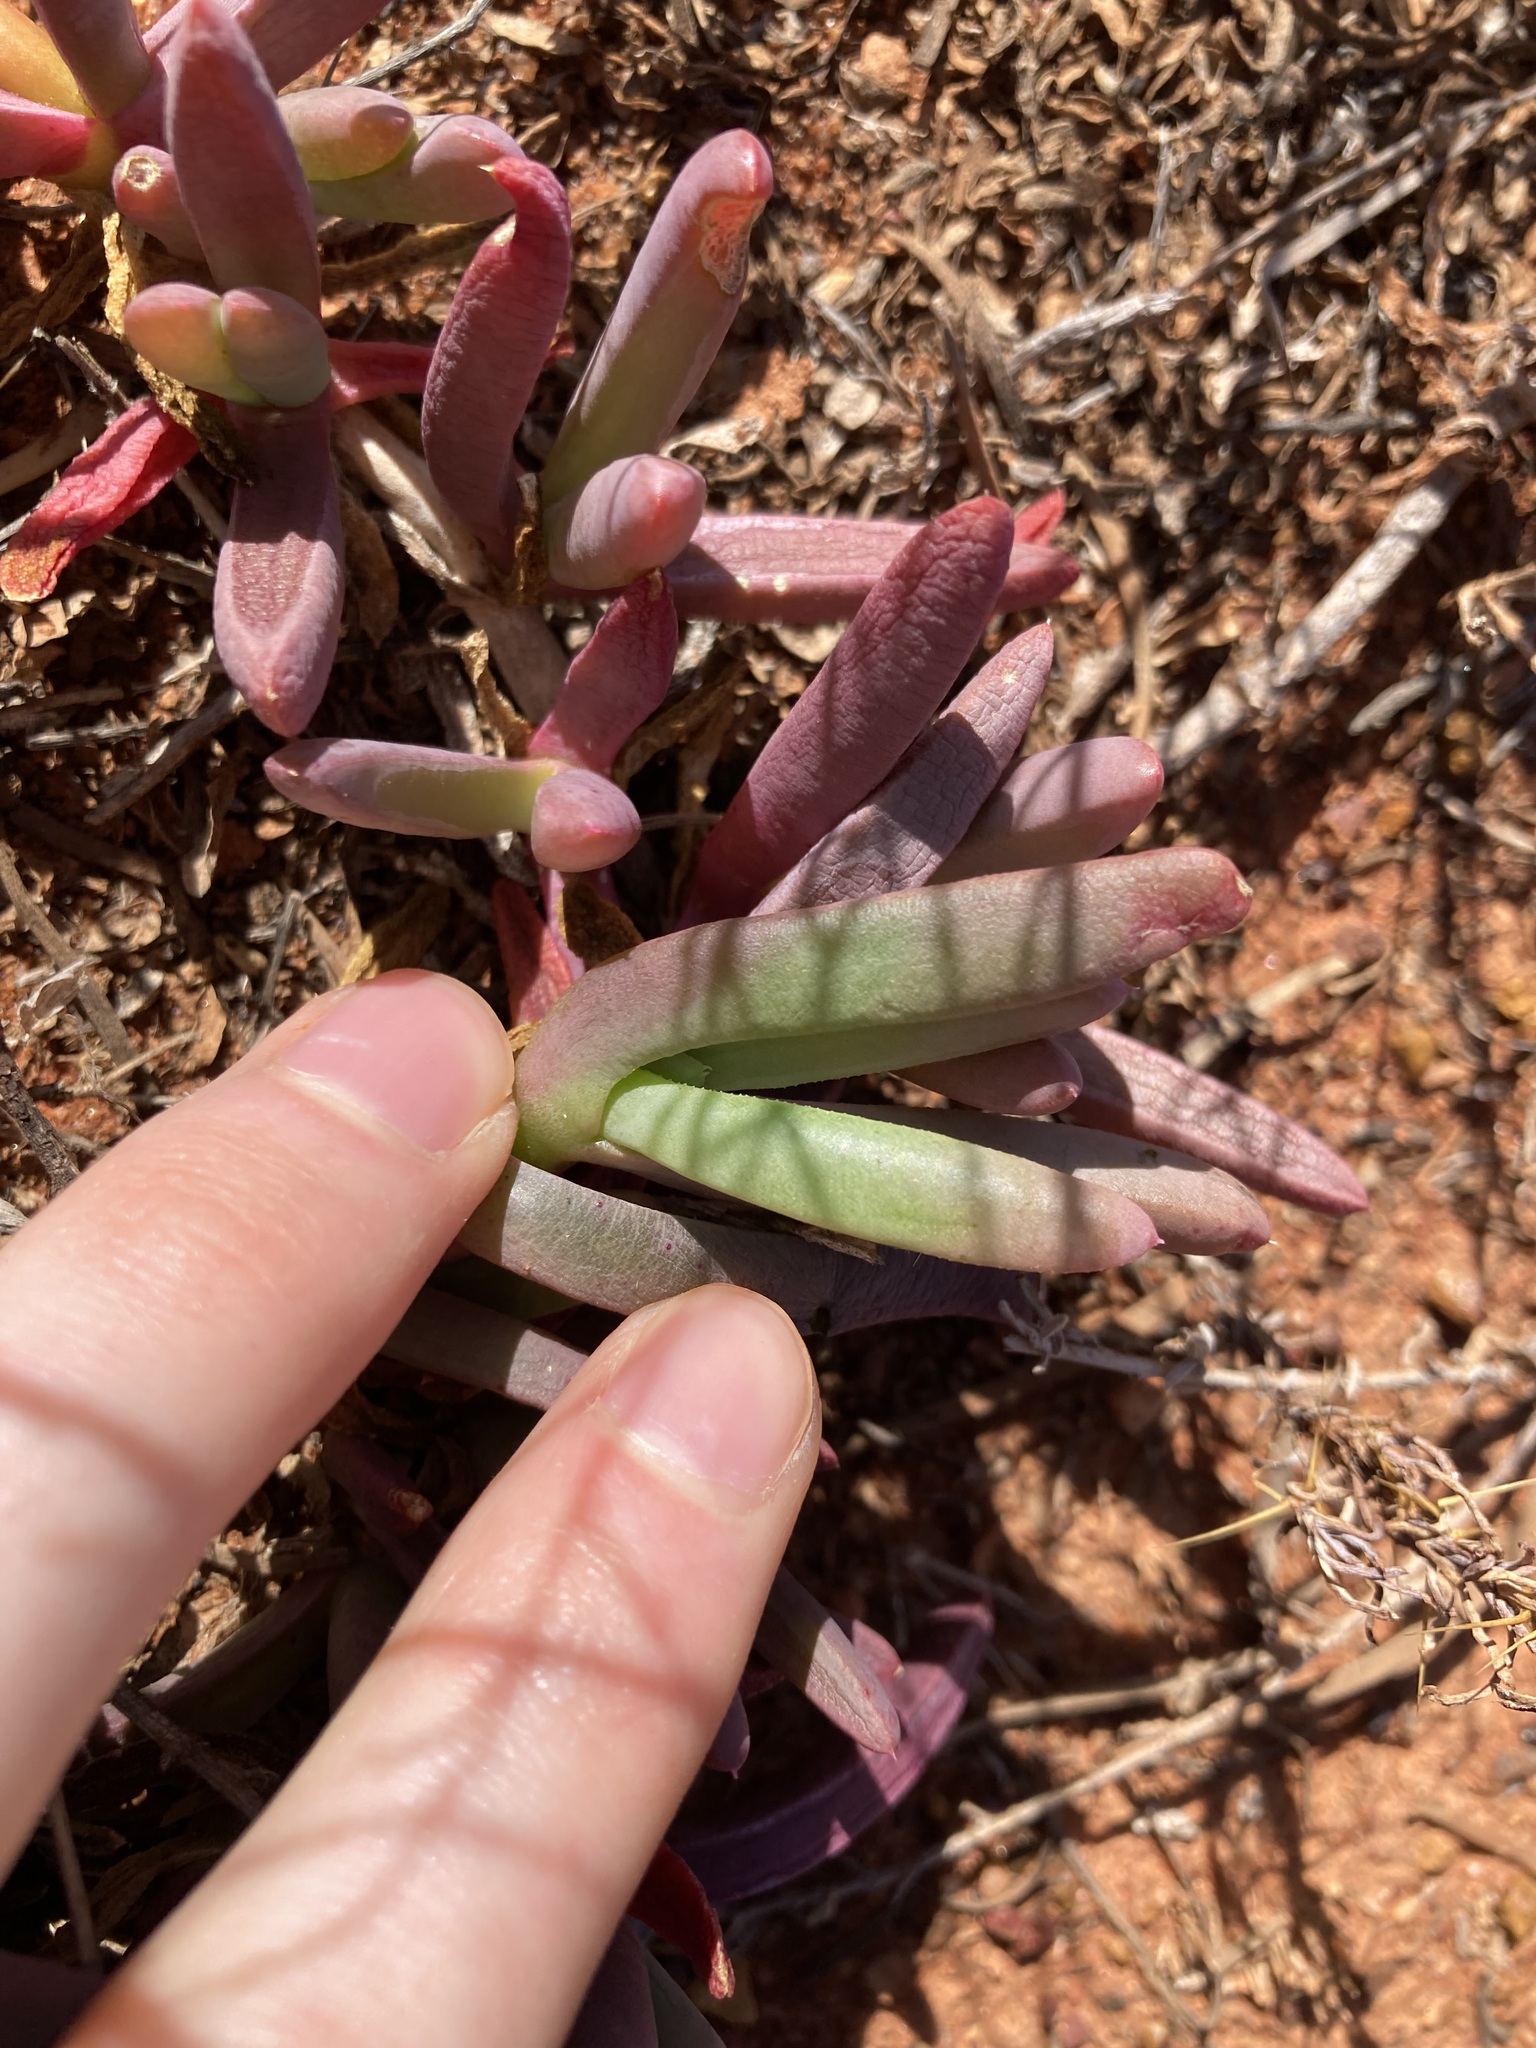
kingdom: Plantae
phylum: Tracheophyta
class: Magnoliopsida
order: Caryophyllales
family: Aizoaceae
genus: Disphyma
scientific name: Disphyma clavellatum
